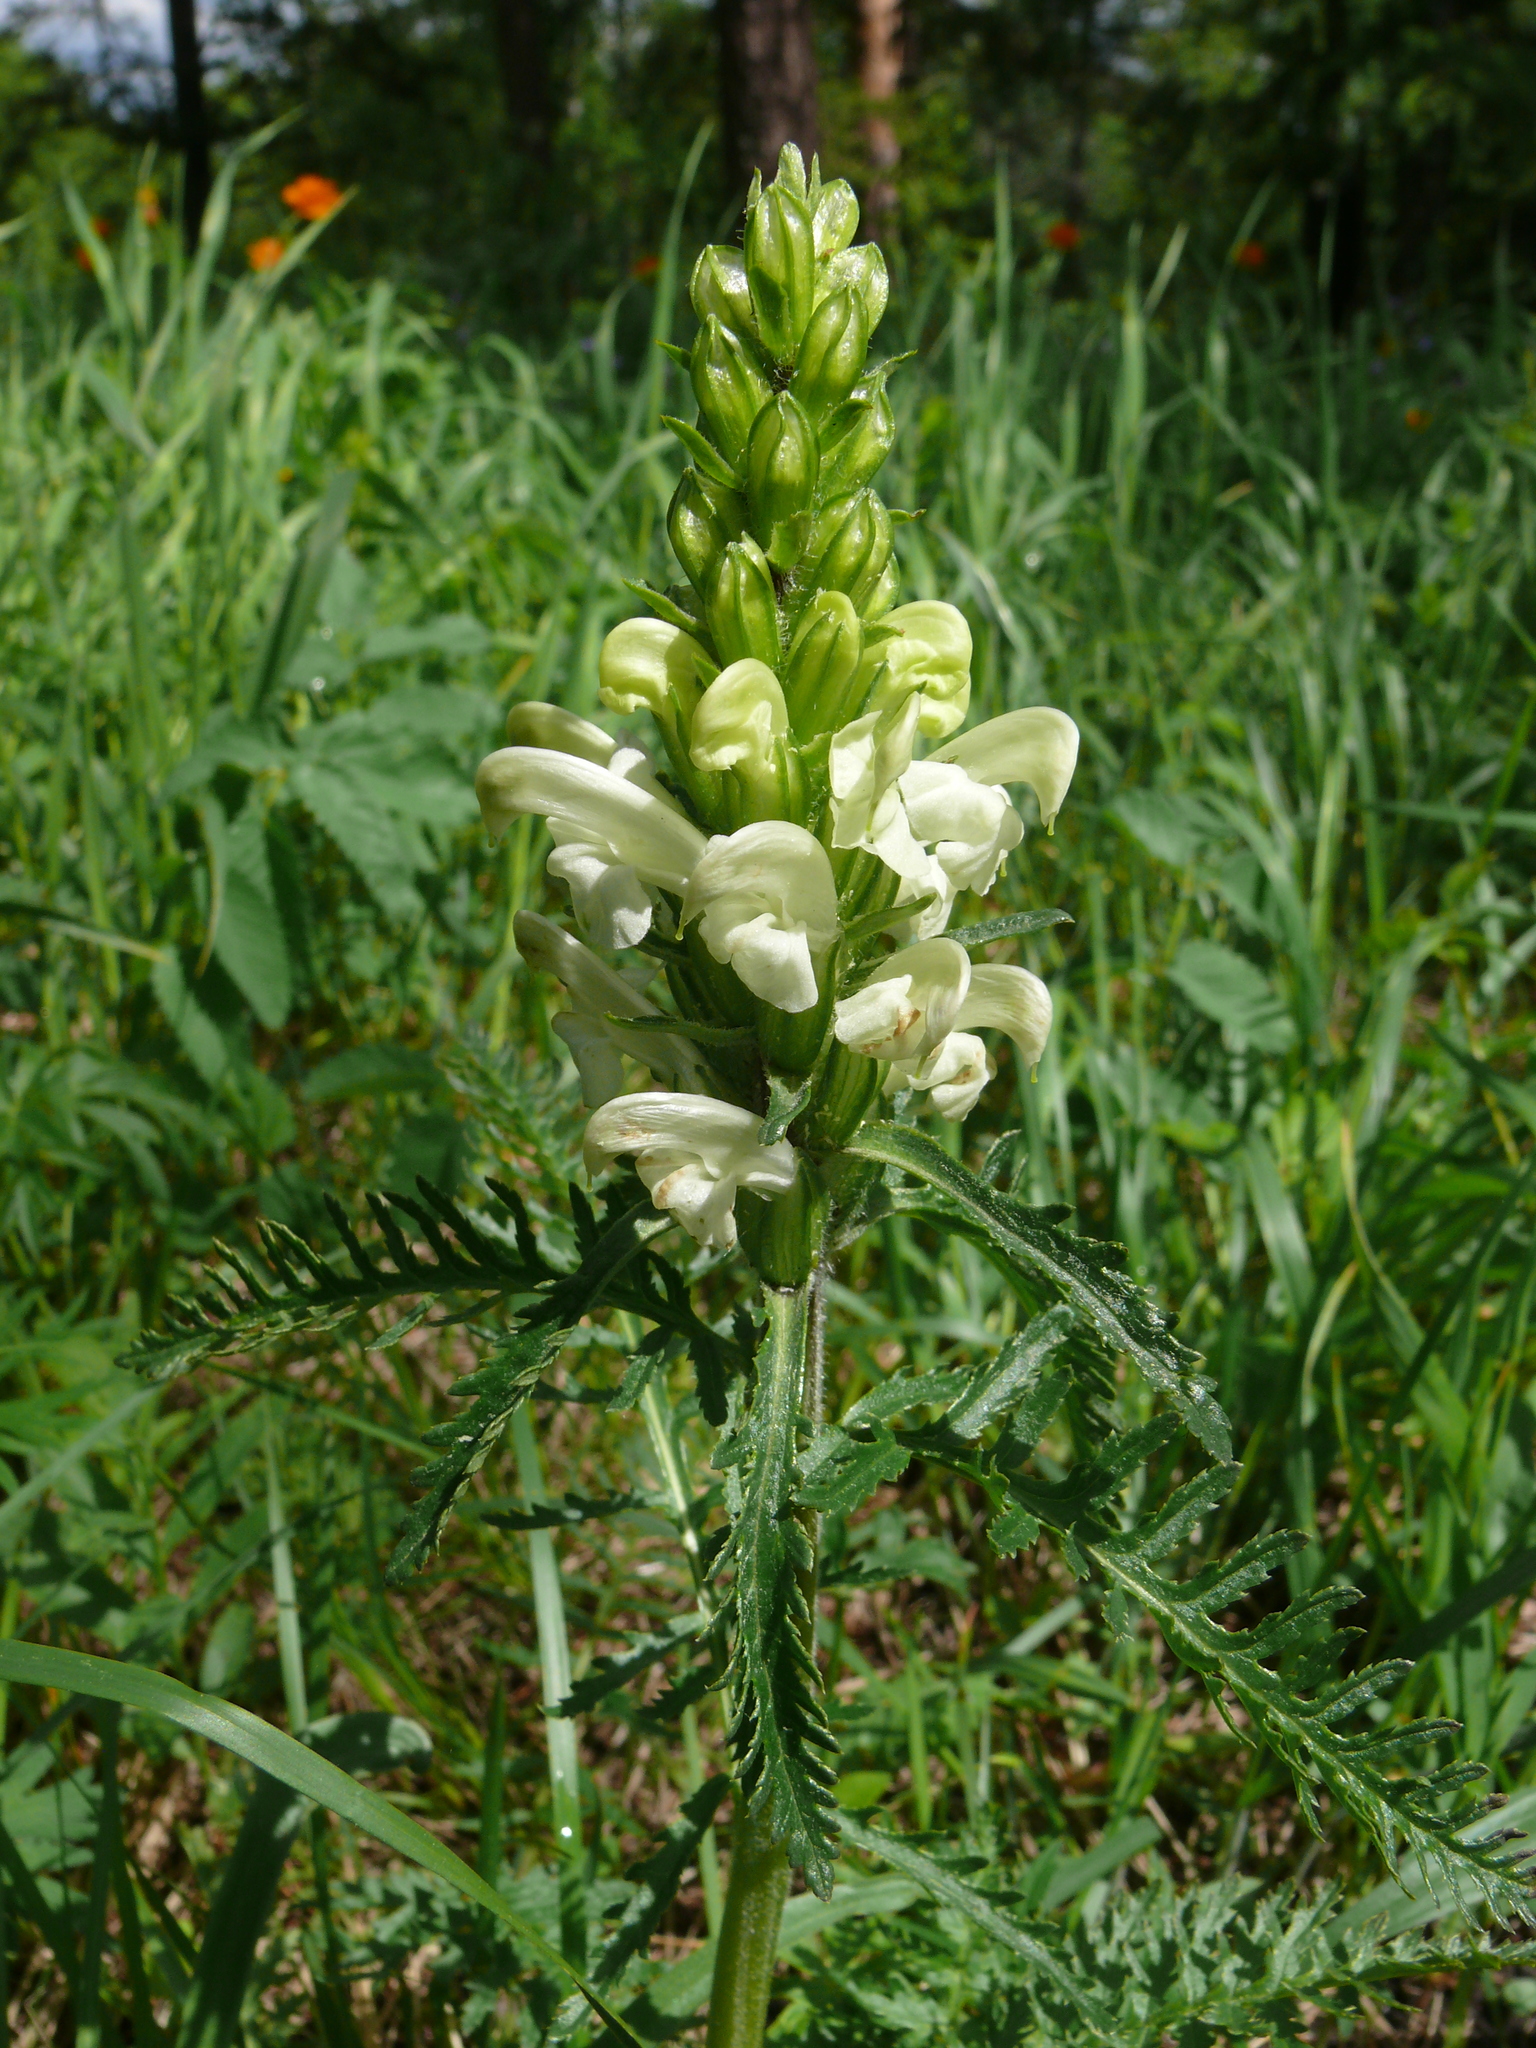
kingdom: Plantae
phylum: Tracheophyta
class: Magnoliopsida
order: Lamiales
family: Orobanchaceae
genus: Pedicularis
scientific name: Pedicularis sibirica
